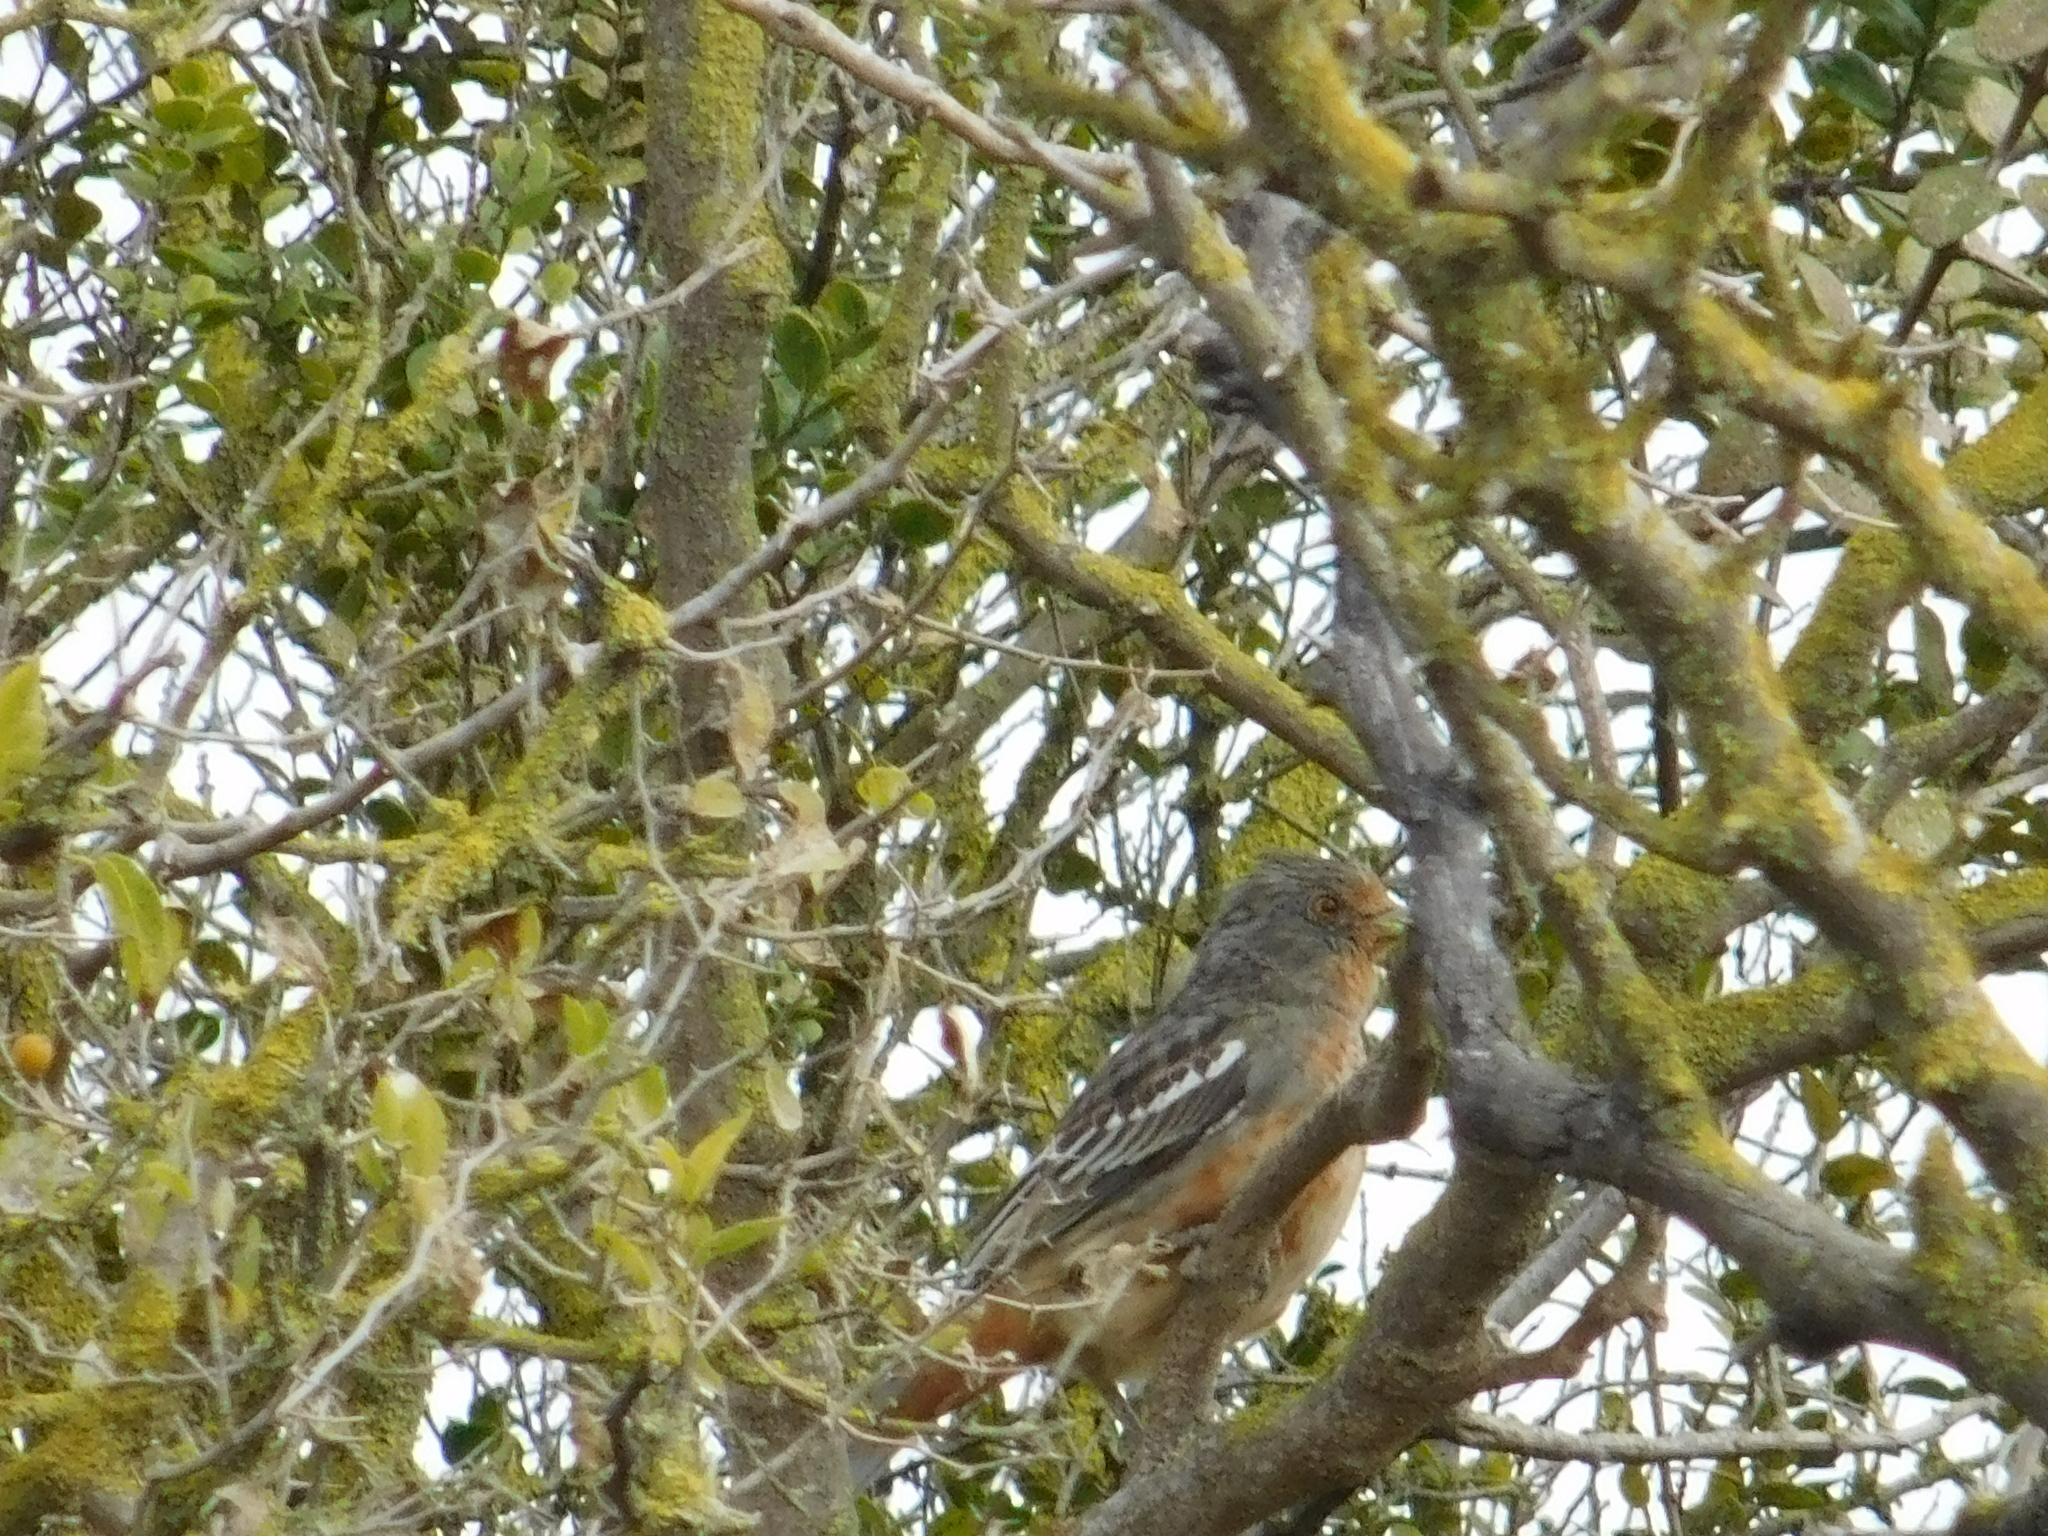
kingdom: Animalia
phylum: Chordata
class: Aves
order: Passeriformes
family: Cotingidae
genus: Phytotoma
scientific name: Phytotoma rutila
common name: White-tipped plantcutter
